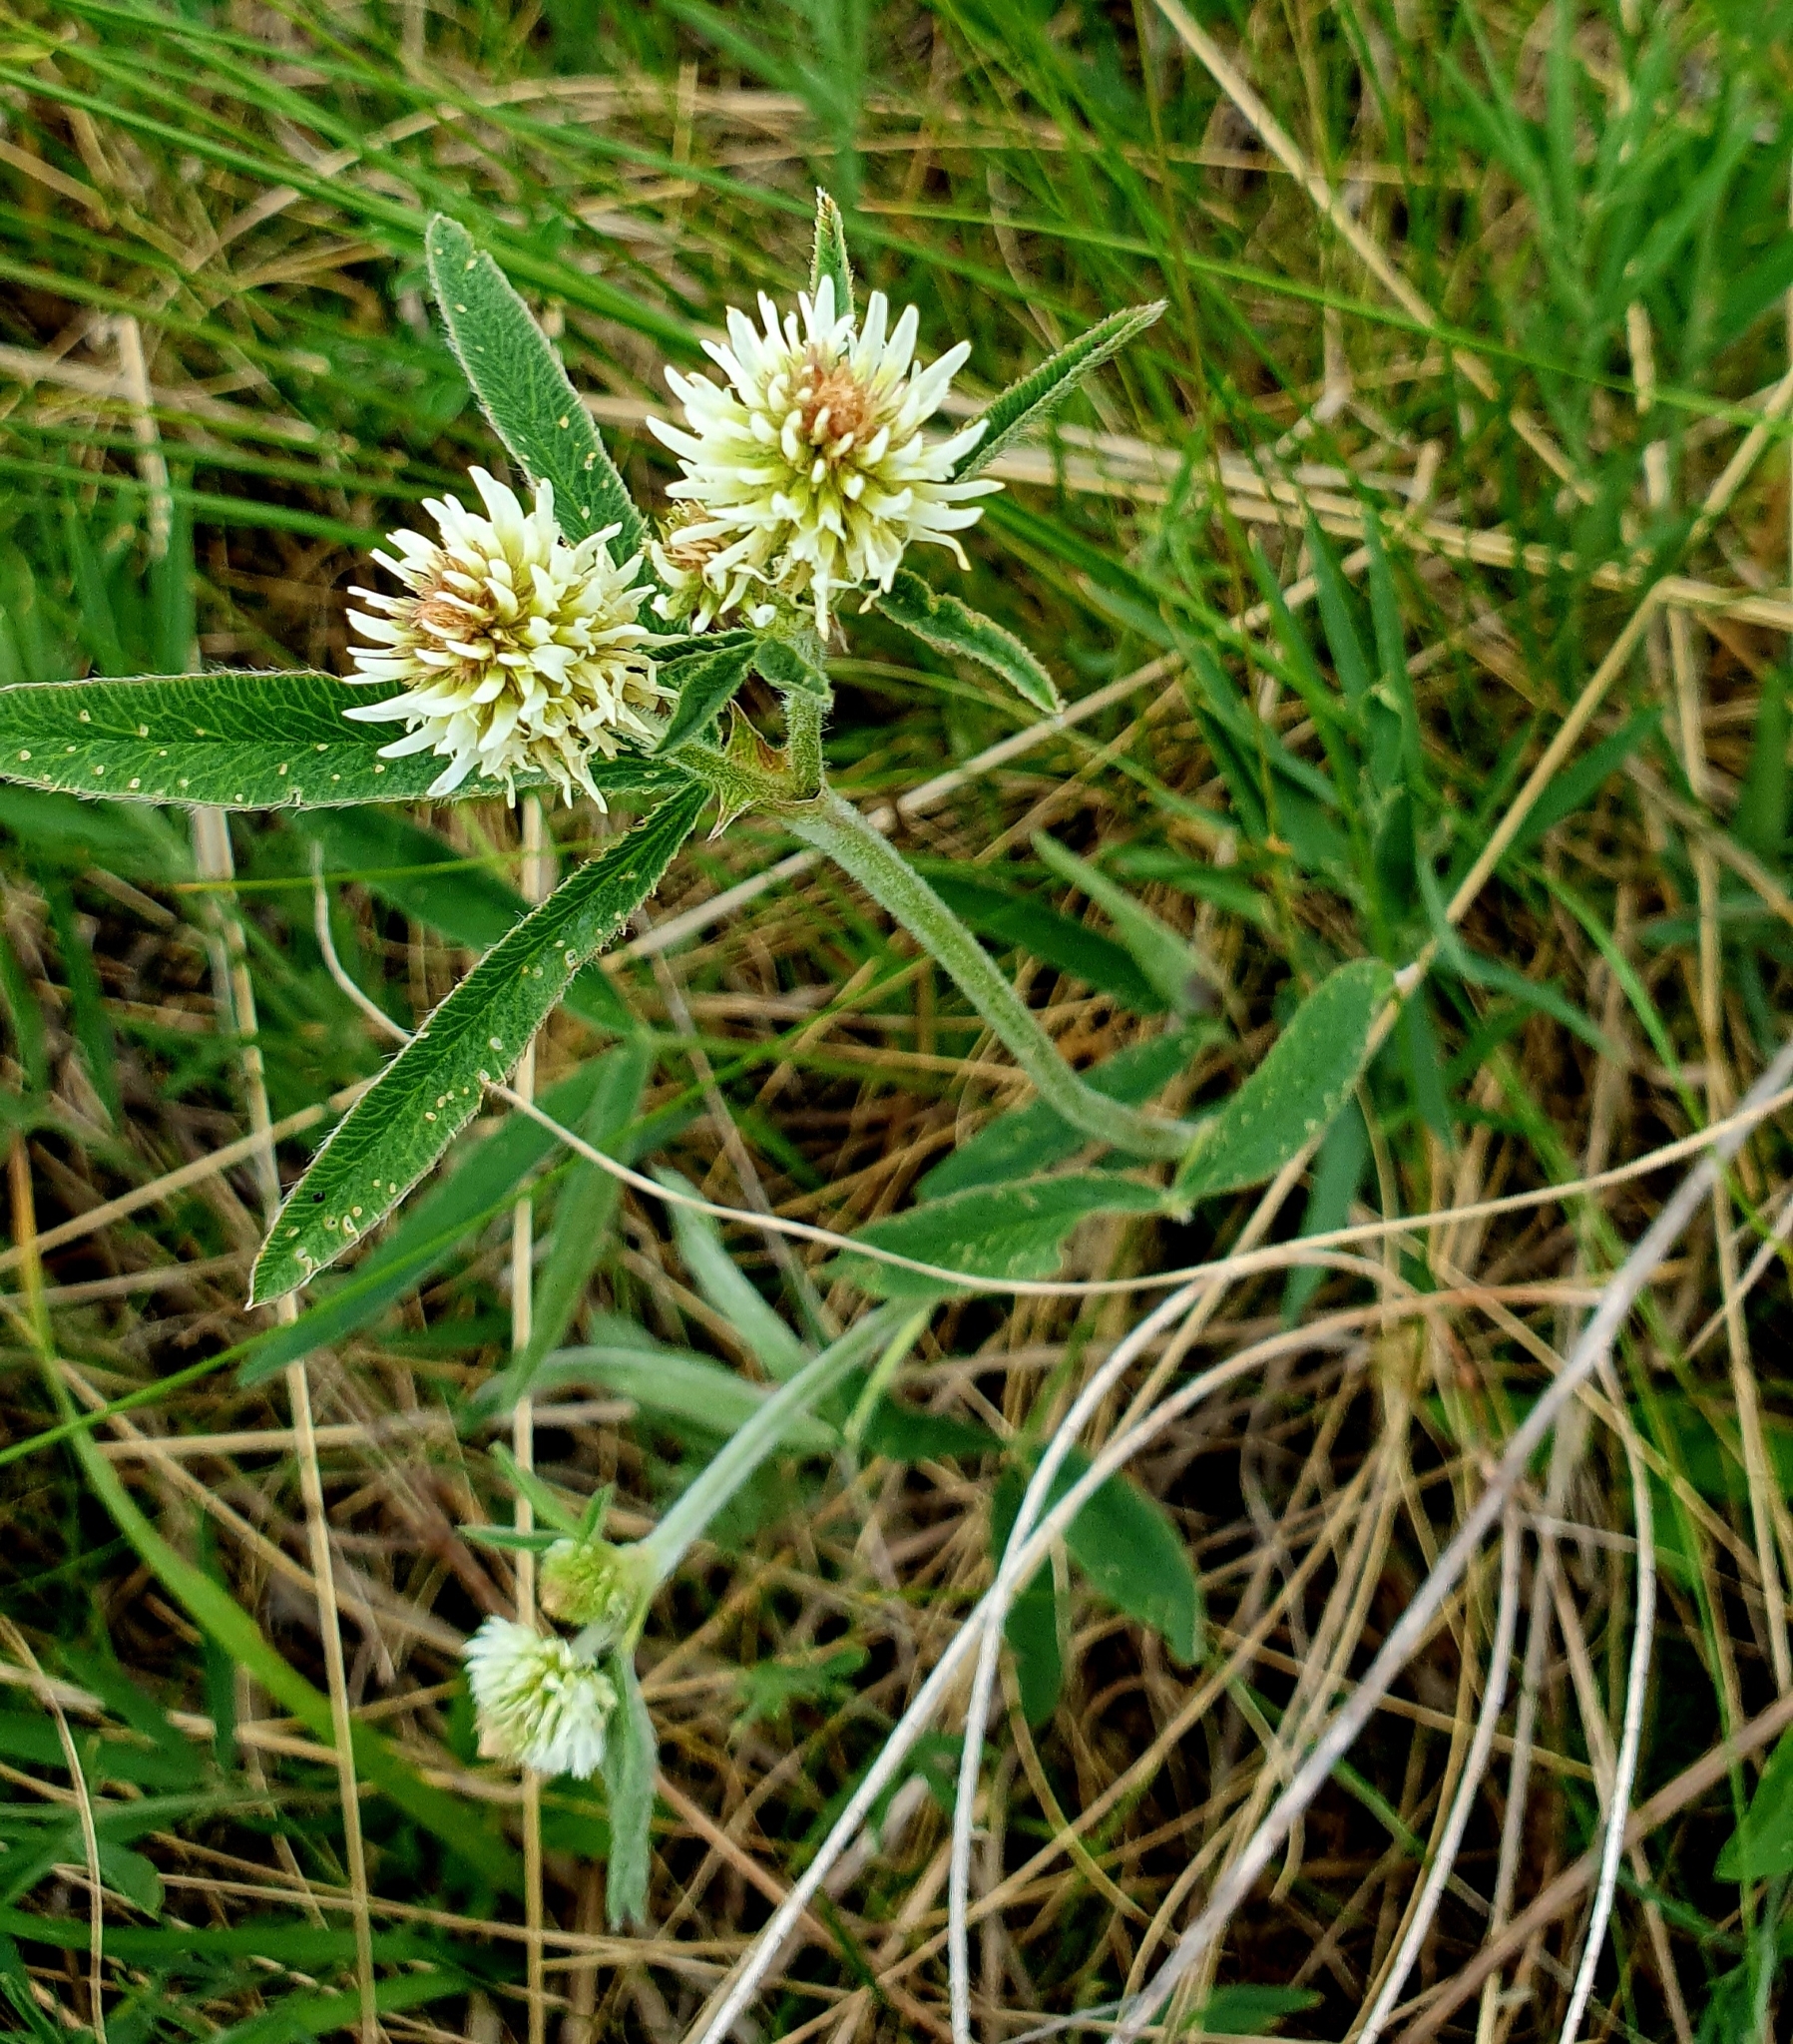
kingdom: Plantae
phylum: Tracheophyta
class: Magnoliopsida
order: Fabales
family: Fabaceae
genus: Trifolium
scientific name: Trifolium montanum
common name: Mountain clover
